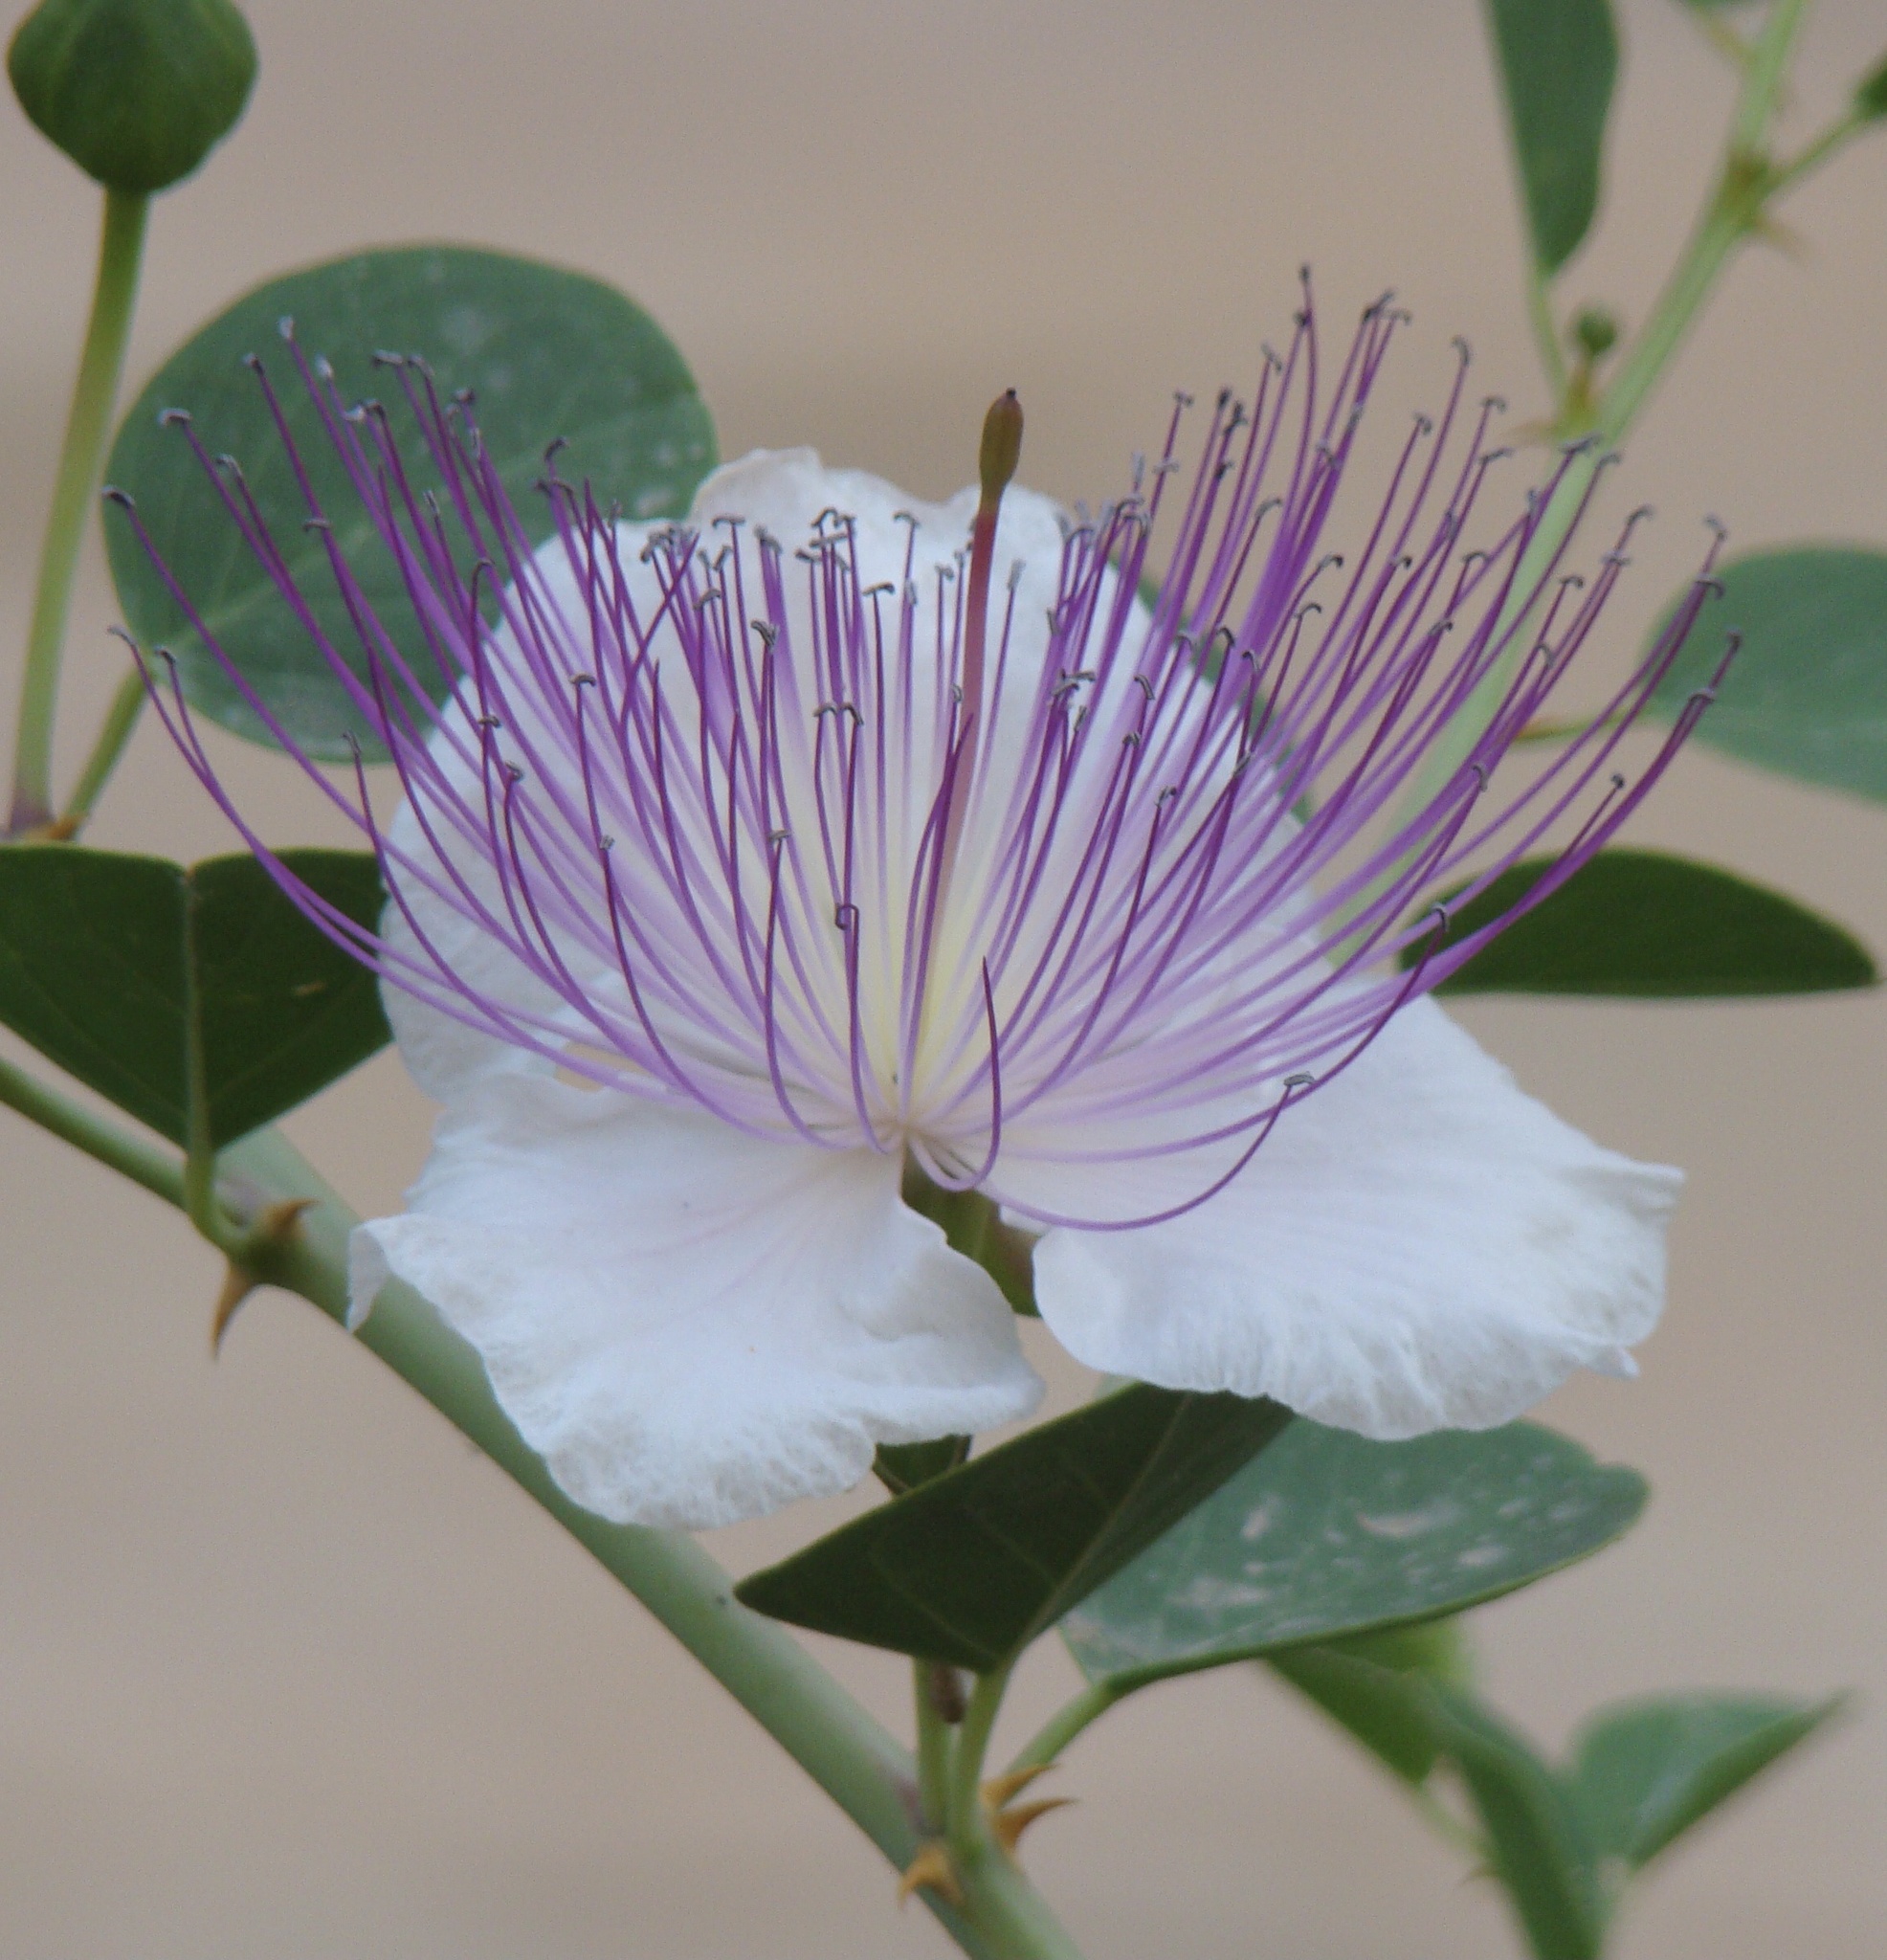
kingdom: Plantae
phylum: Tracheophyta
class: Magnoliopsida
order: Brassicales
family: Capparaceae
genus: Capparis
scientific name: Capparis spinosa
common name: Caper
